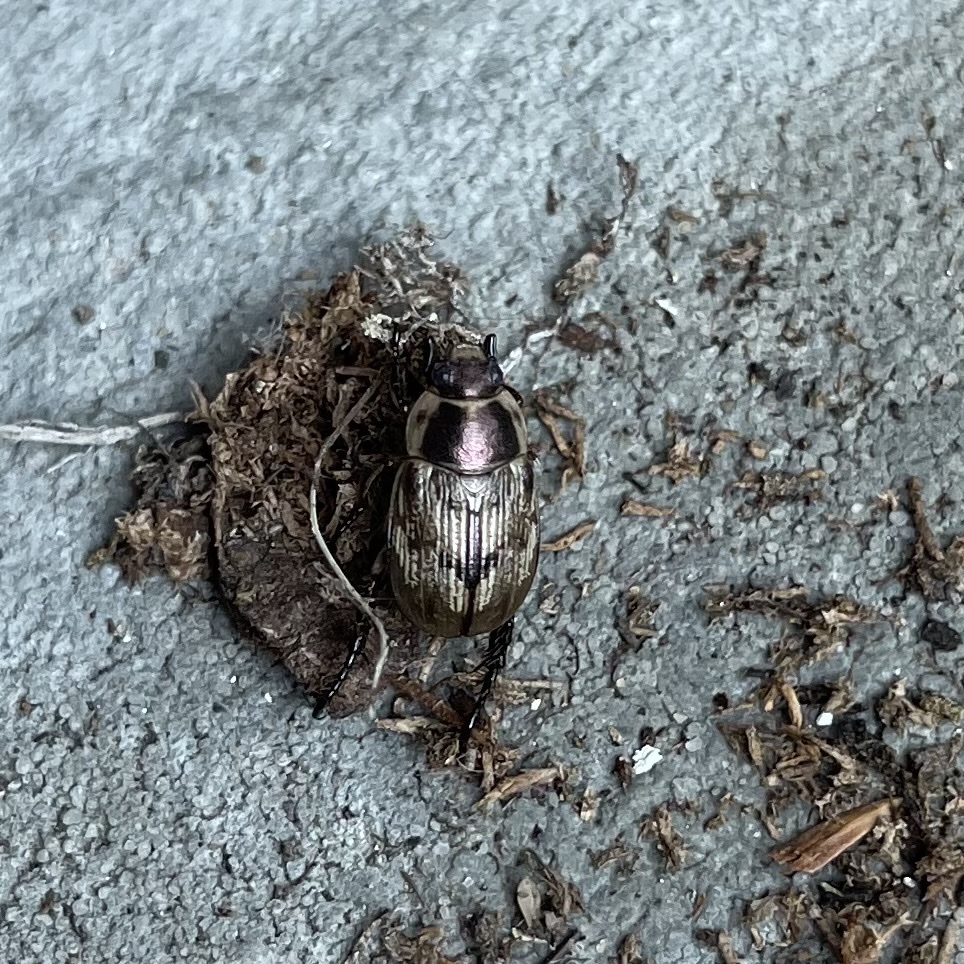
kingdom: Animalia
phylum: Arthropoda
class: Insecta
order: Coleoptera
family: Scarabaeidae
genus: Exomala
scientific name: Exomala orientalis
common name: Oriental beetle
